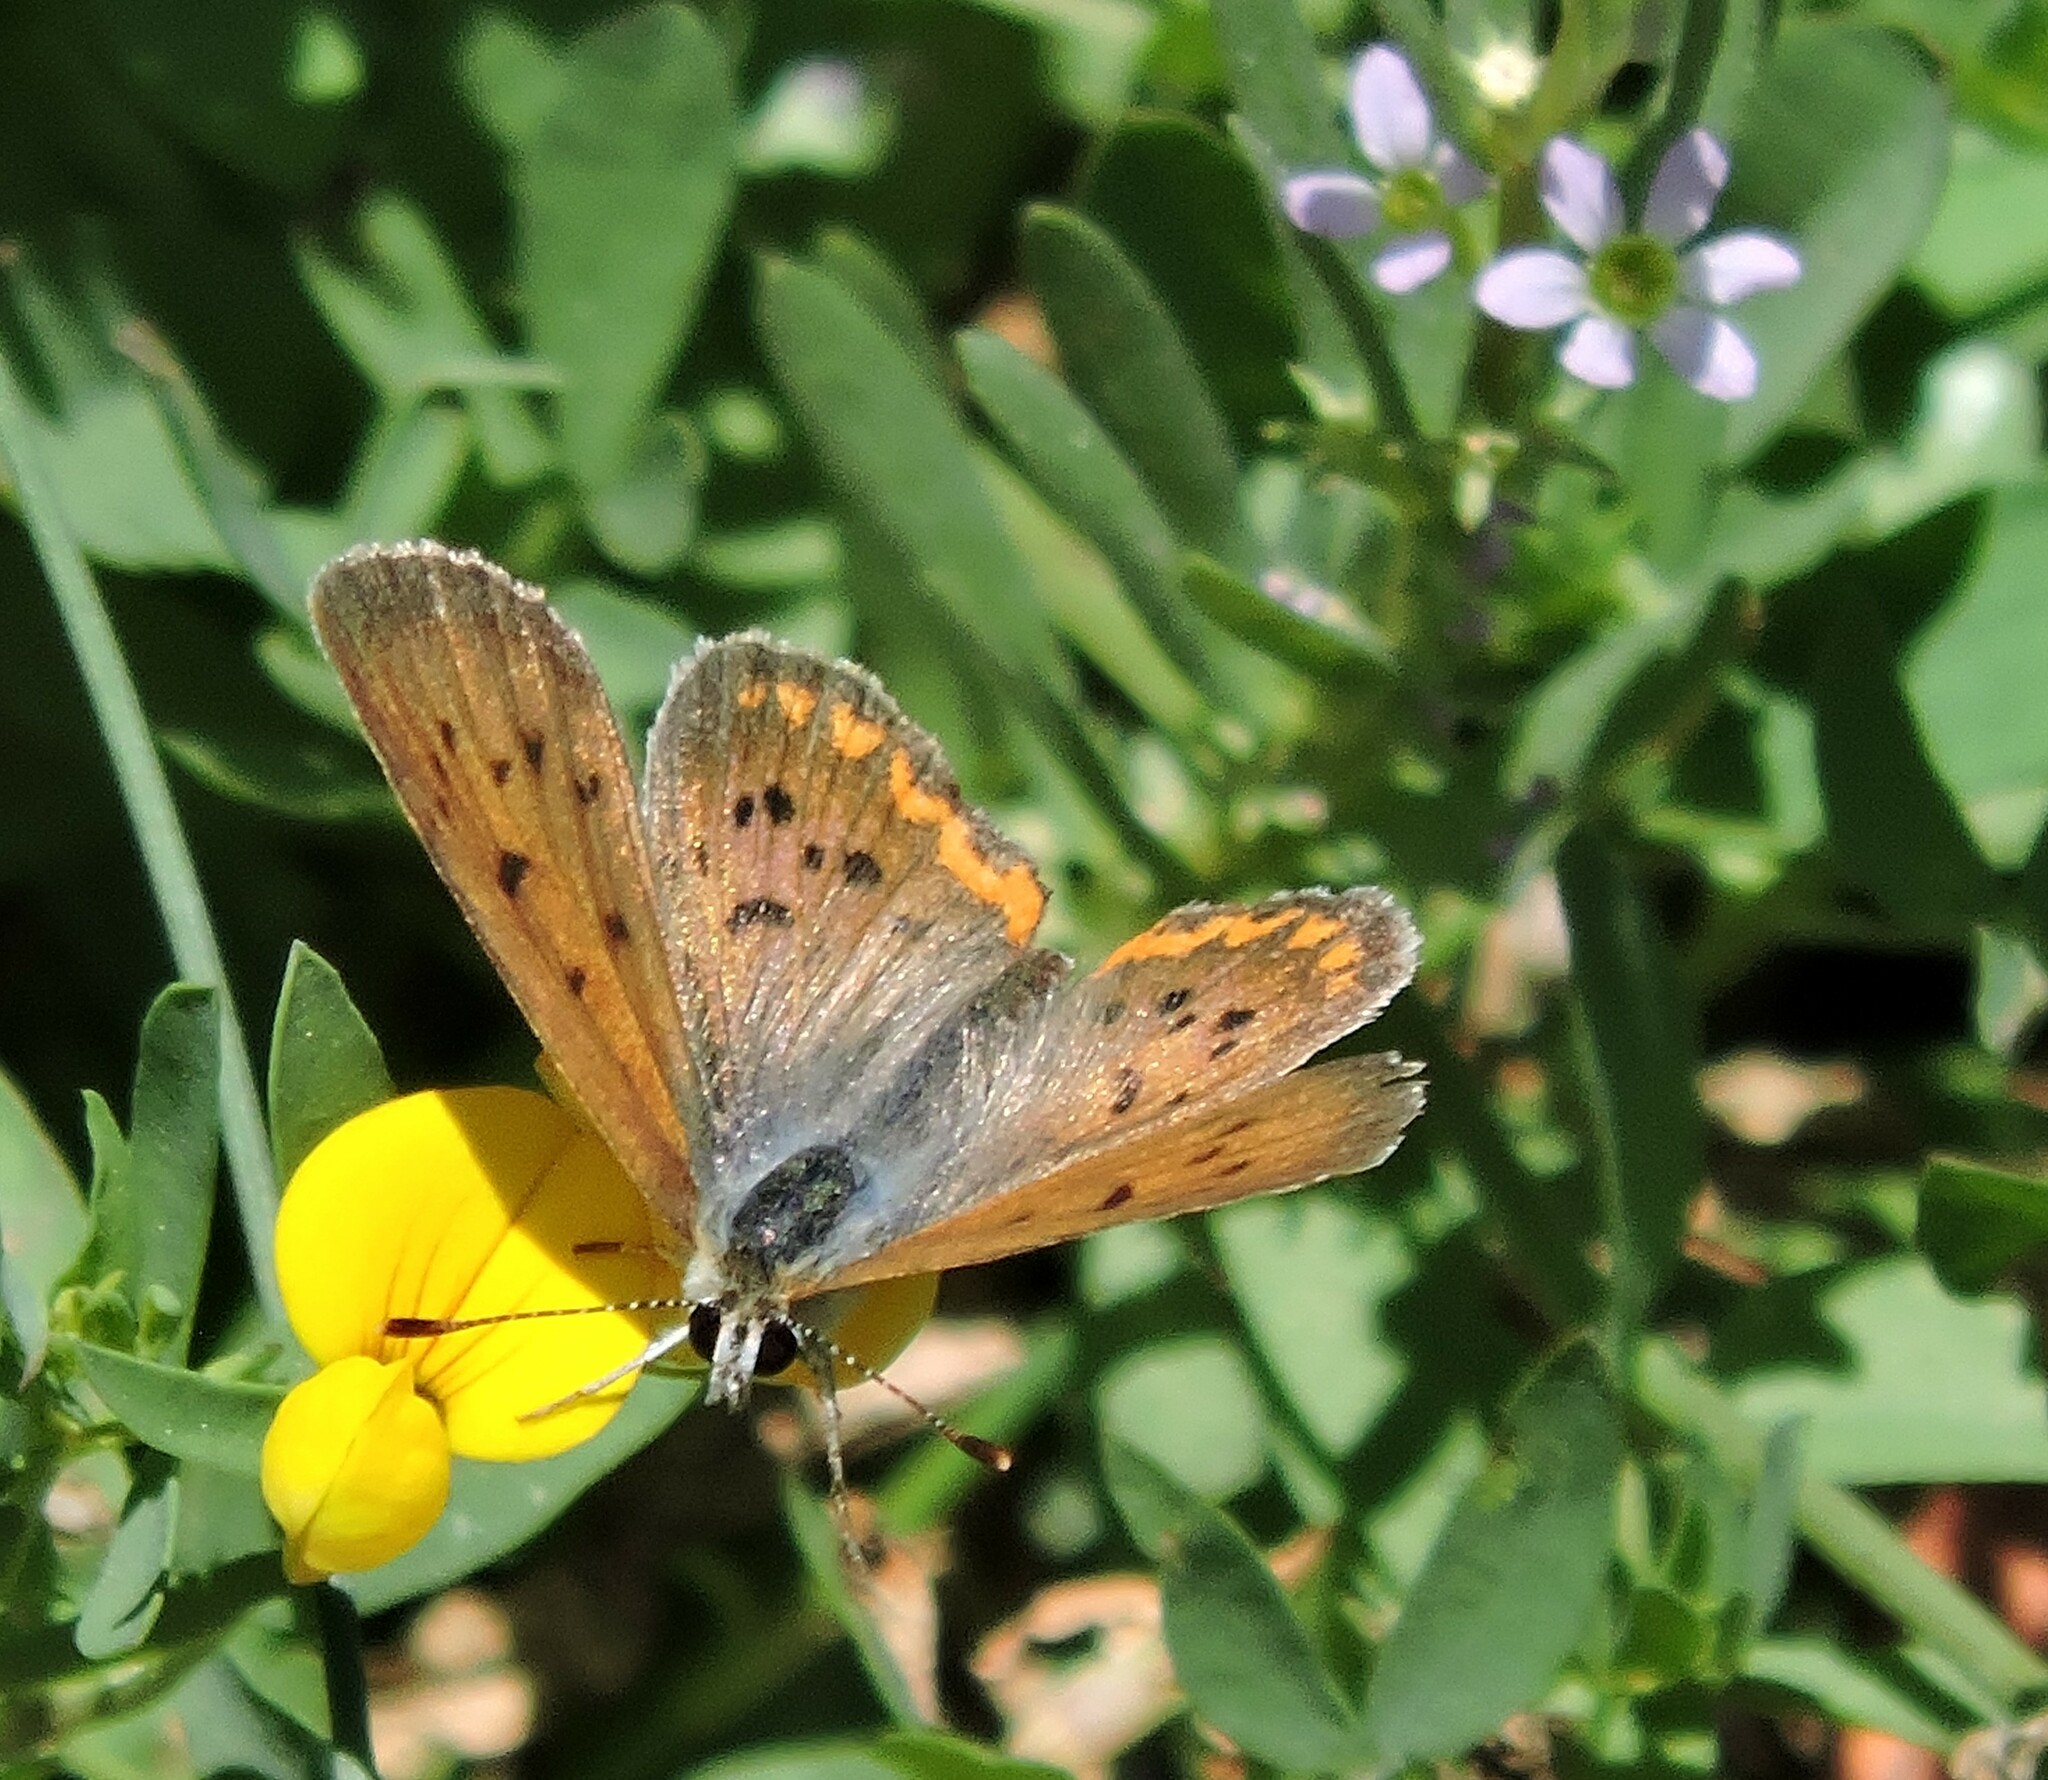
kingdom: Animalia
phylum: Arthropoda
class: Insecta
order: Lepidoptera
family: Lycaenidae
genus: Tharsalea
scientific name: Tharsalea helloides
